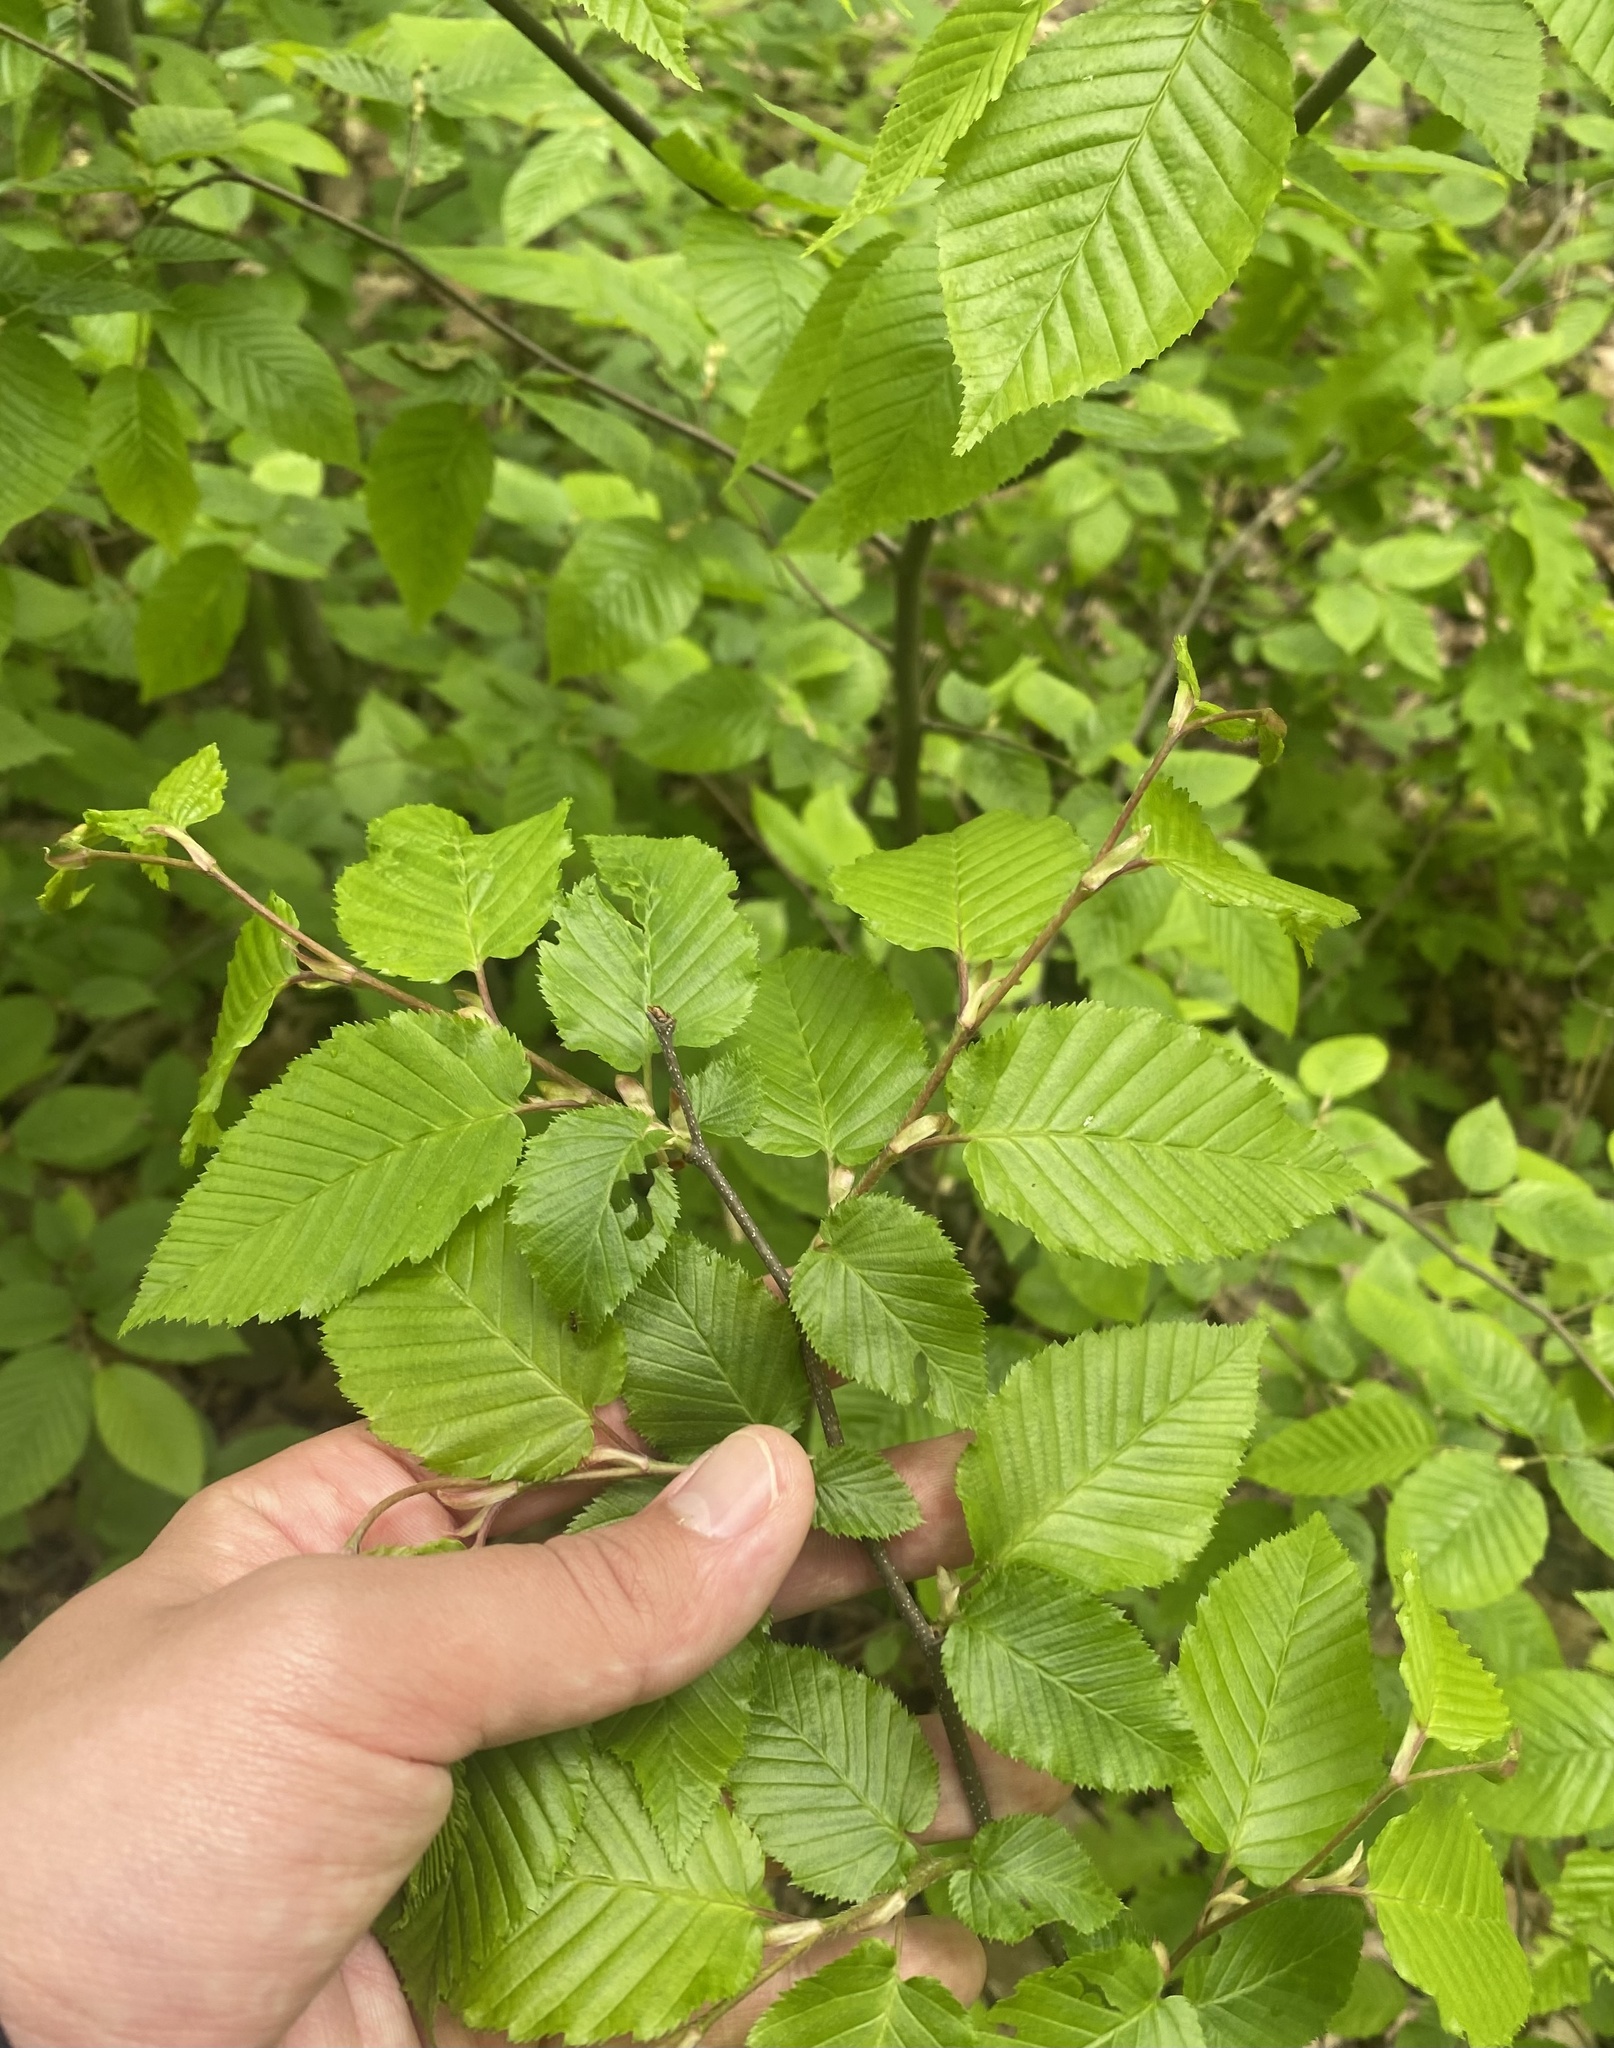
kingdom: Plantae
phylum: Tracheophyta
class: Magnoliopsida
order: Fagales
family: Betulaceae
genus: Carpinus
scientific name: Carpinus betulus
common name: Hornbeam
